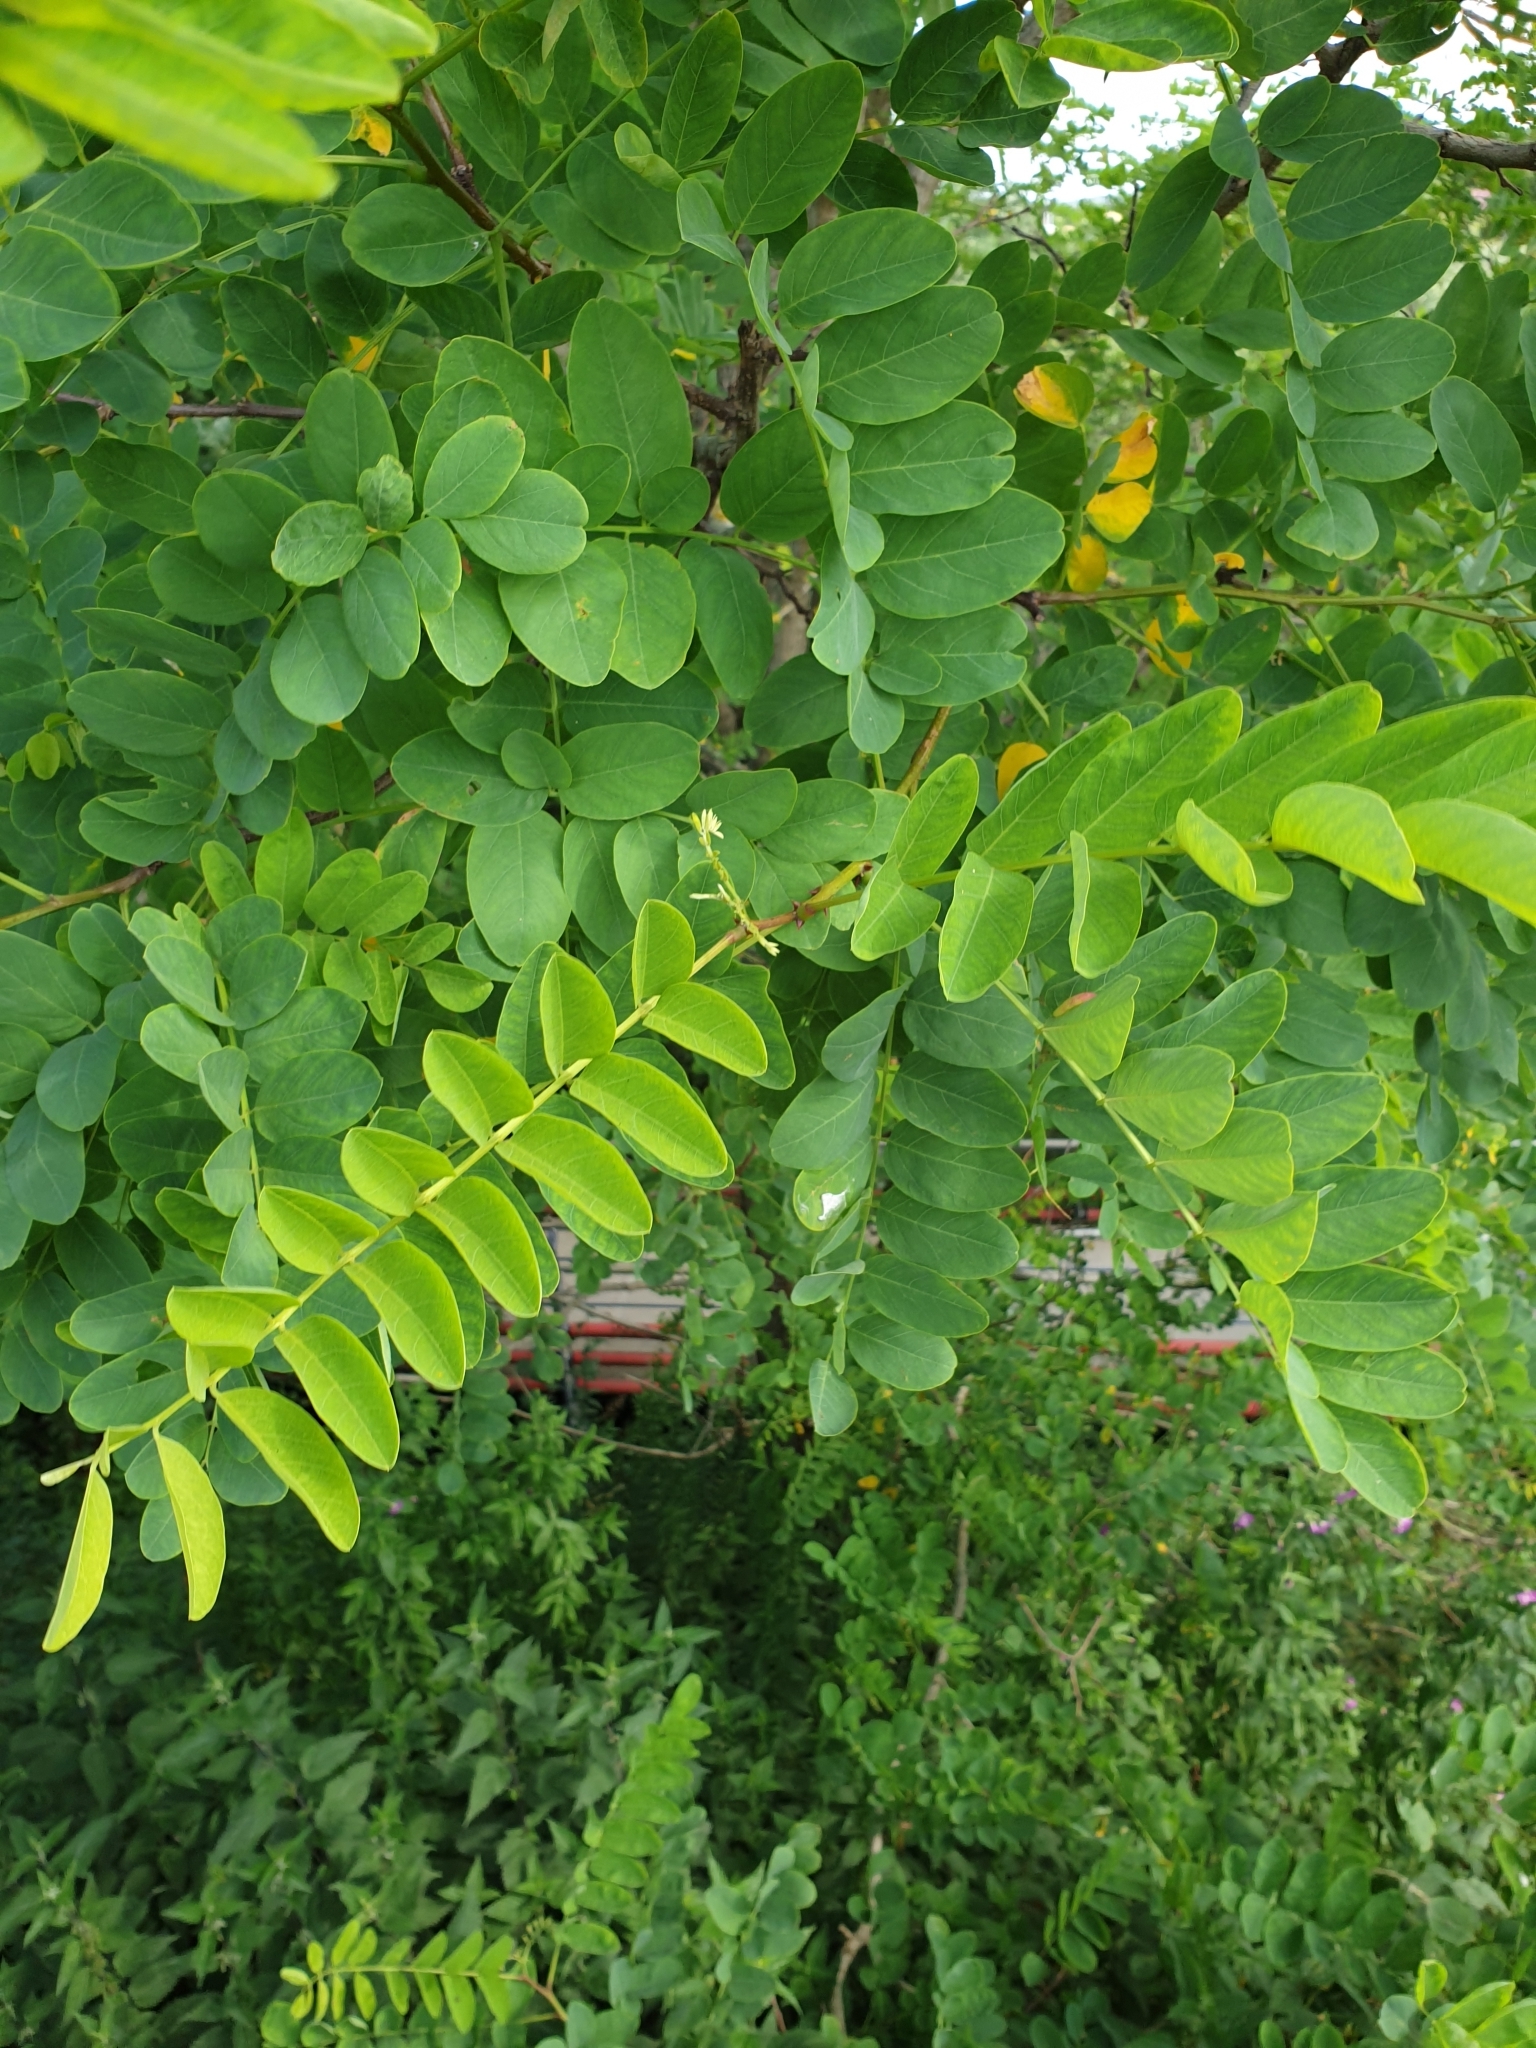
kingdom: Plantae
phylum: Tracheophyta
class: Magnoliopsida
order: Fabales
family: Fabaceae
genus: Robinia
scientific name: Robinia pseudoacacia
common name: Black locust
